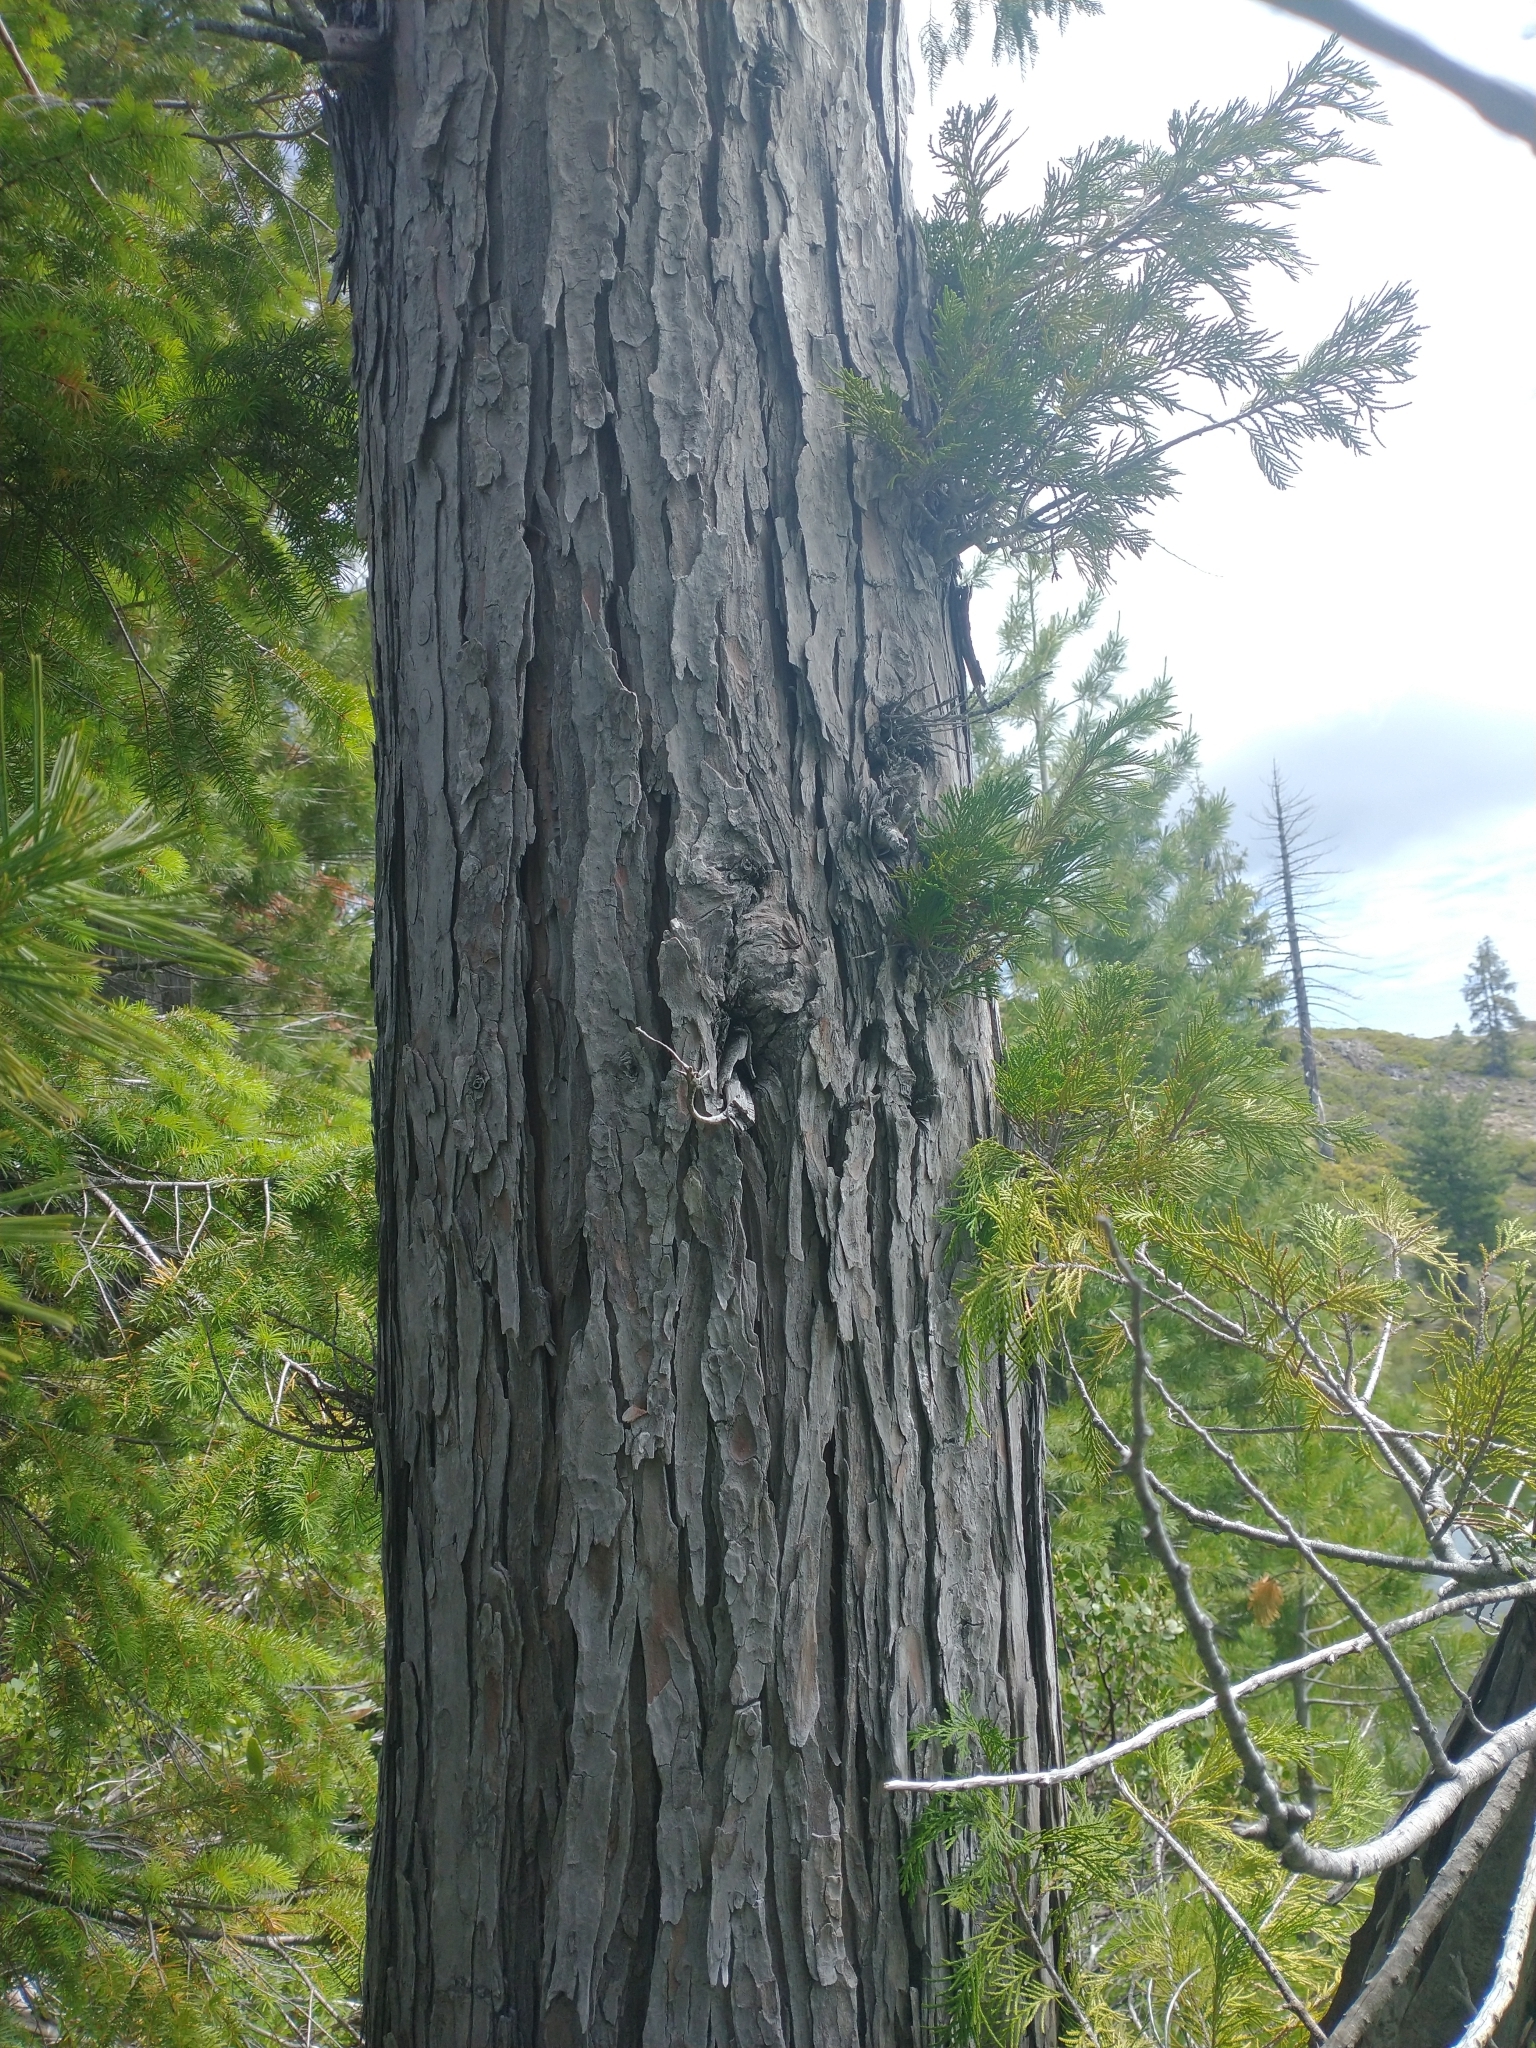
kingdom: Plantae
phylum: Tracheophyta
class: Pinopsida
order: Pinales
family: Cupressaceae
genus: Chamaecyparis
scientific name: Chamaecyparis lawsoniana
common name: Lawson's cypress
